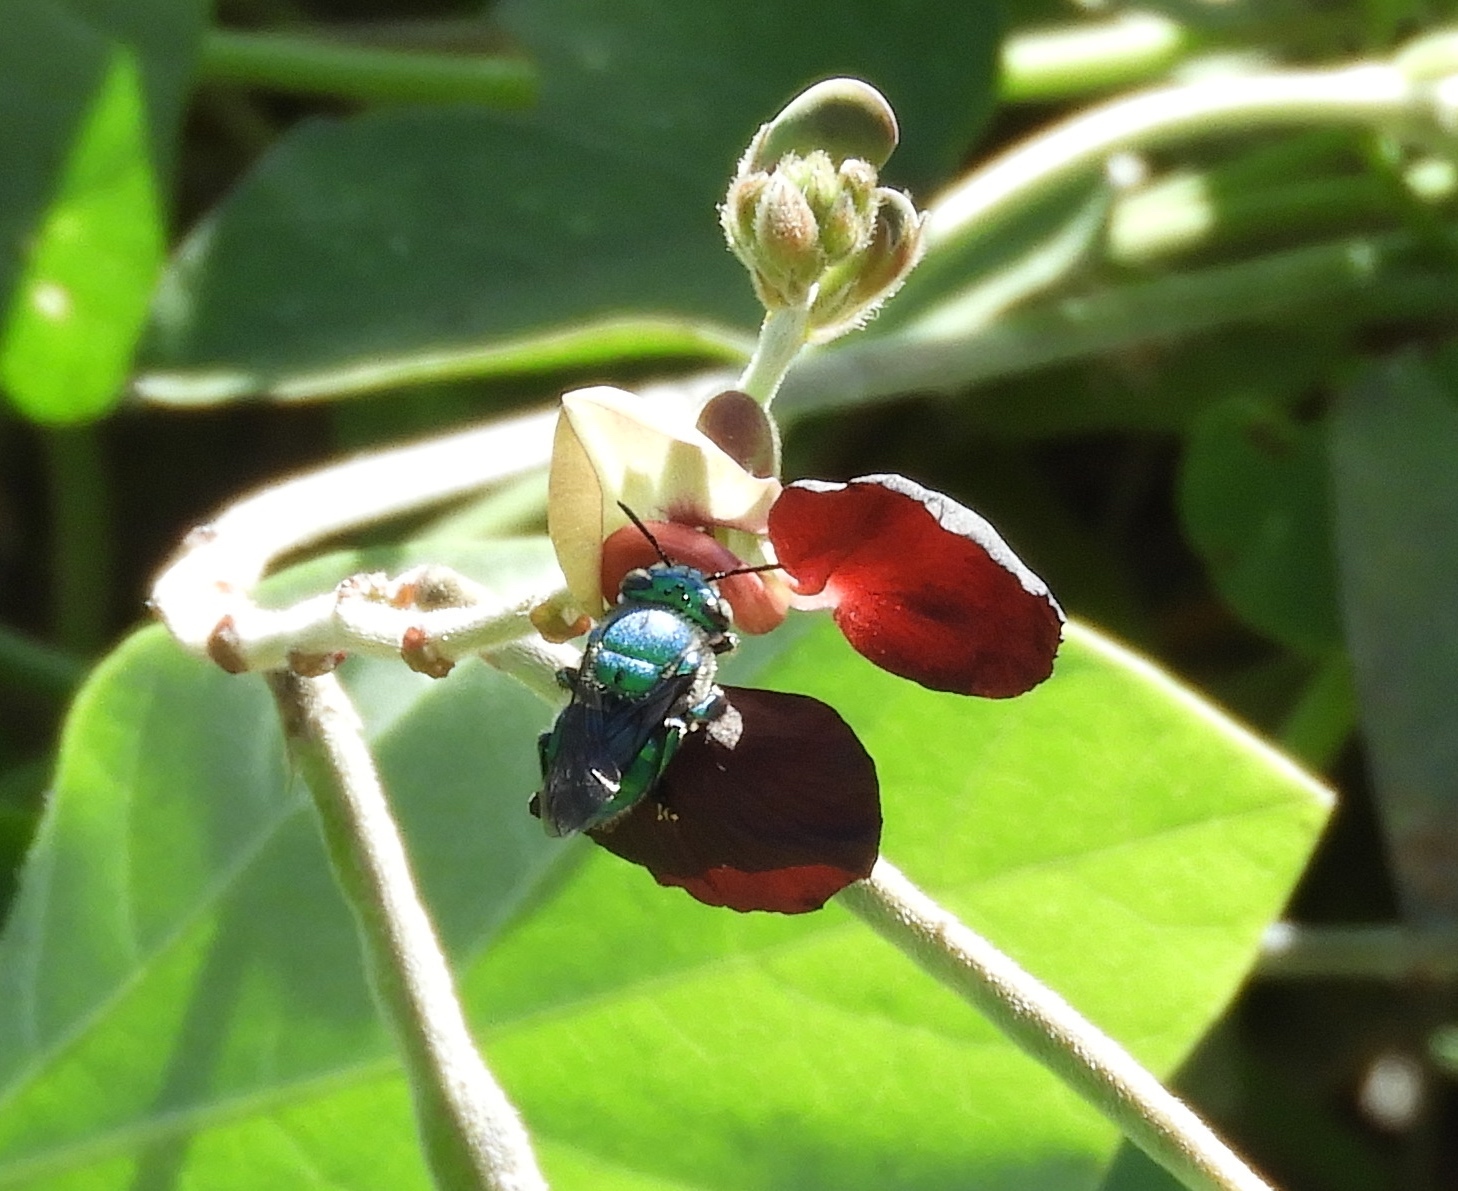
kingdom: Animalia
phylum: Arthropoda
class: Insecta
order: Hymenoptera
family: Apidae
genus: Euglossa
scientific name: Euglossa
